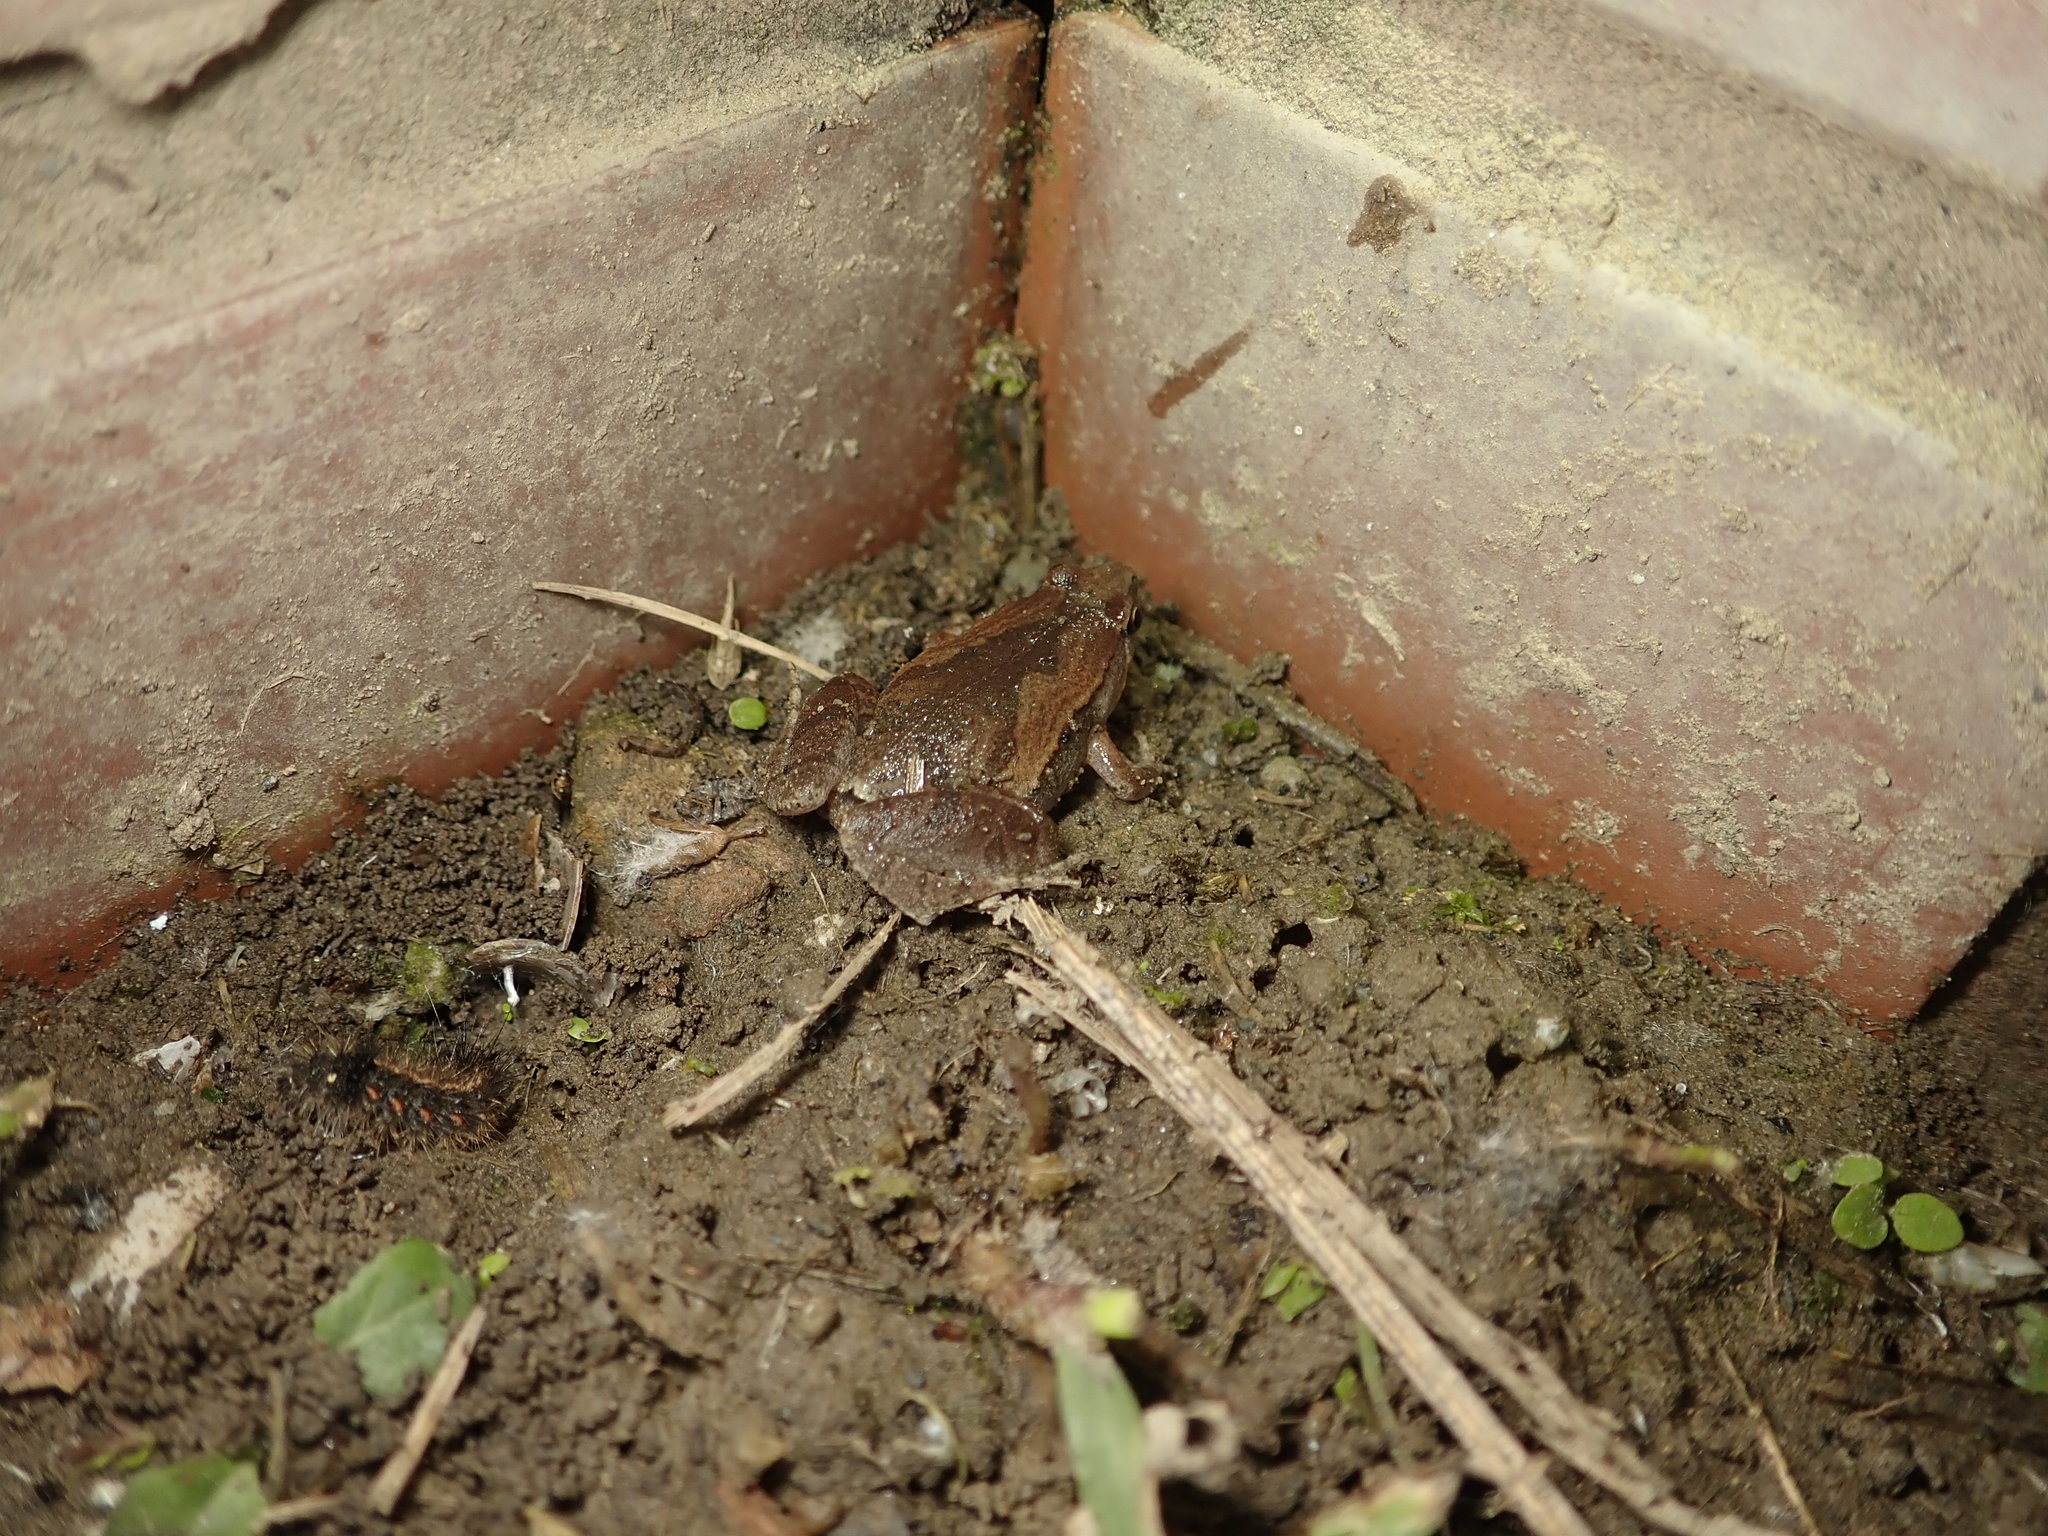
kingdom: Animalia
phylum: Chordata
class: Amphibia
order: Anura
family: Microhylidae
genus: Microhyla
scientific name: Microhyla fissipes
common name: Ornate narrow-mouthed frog
